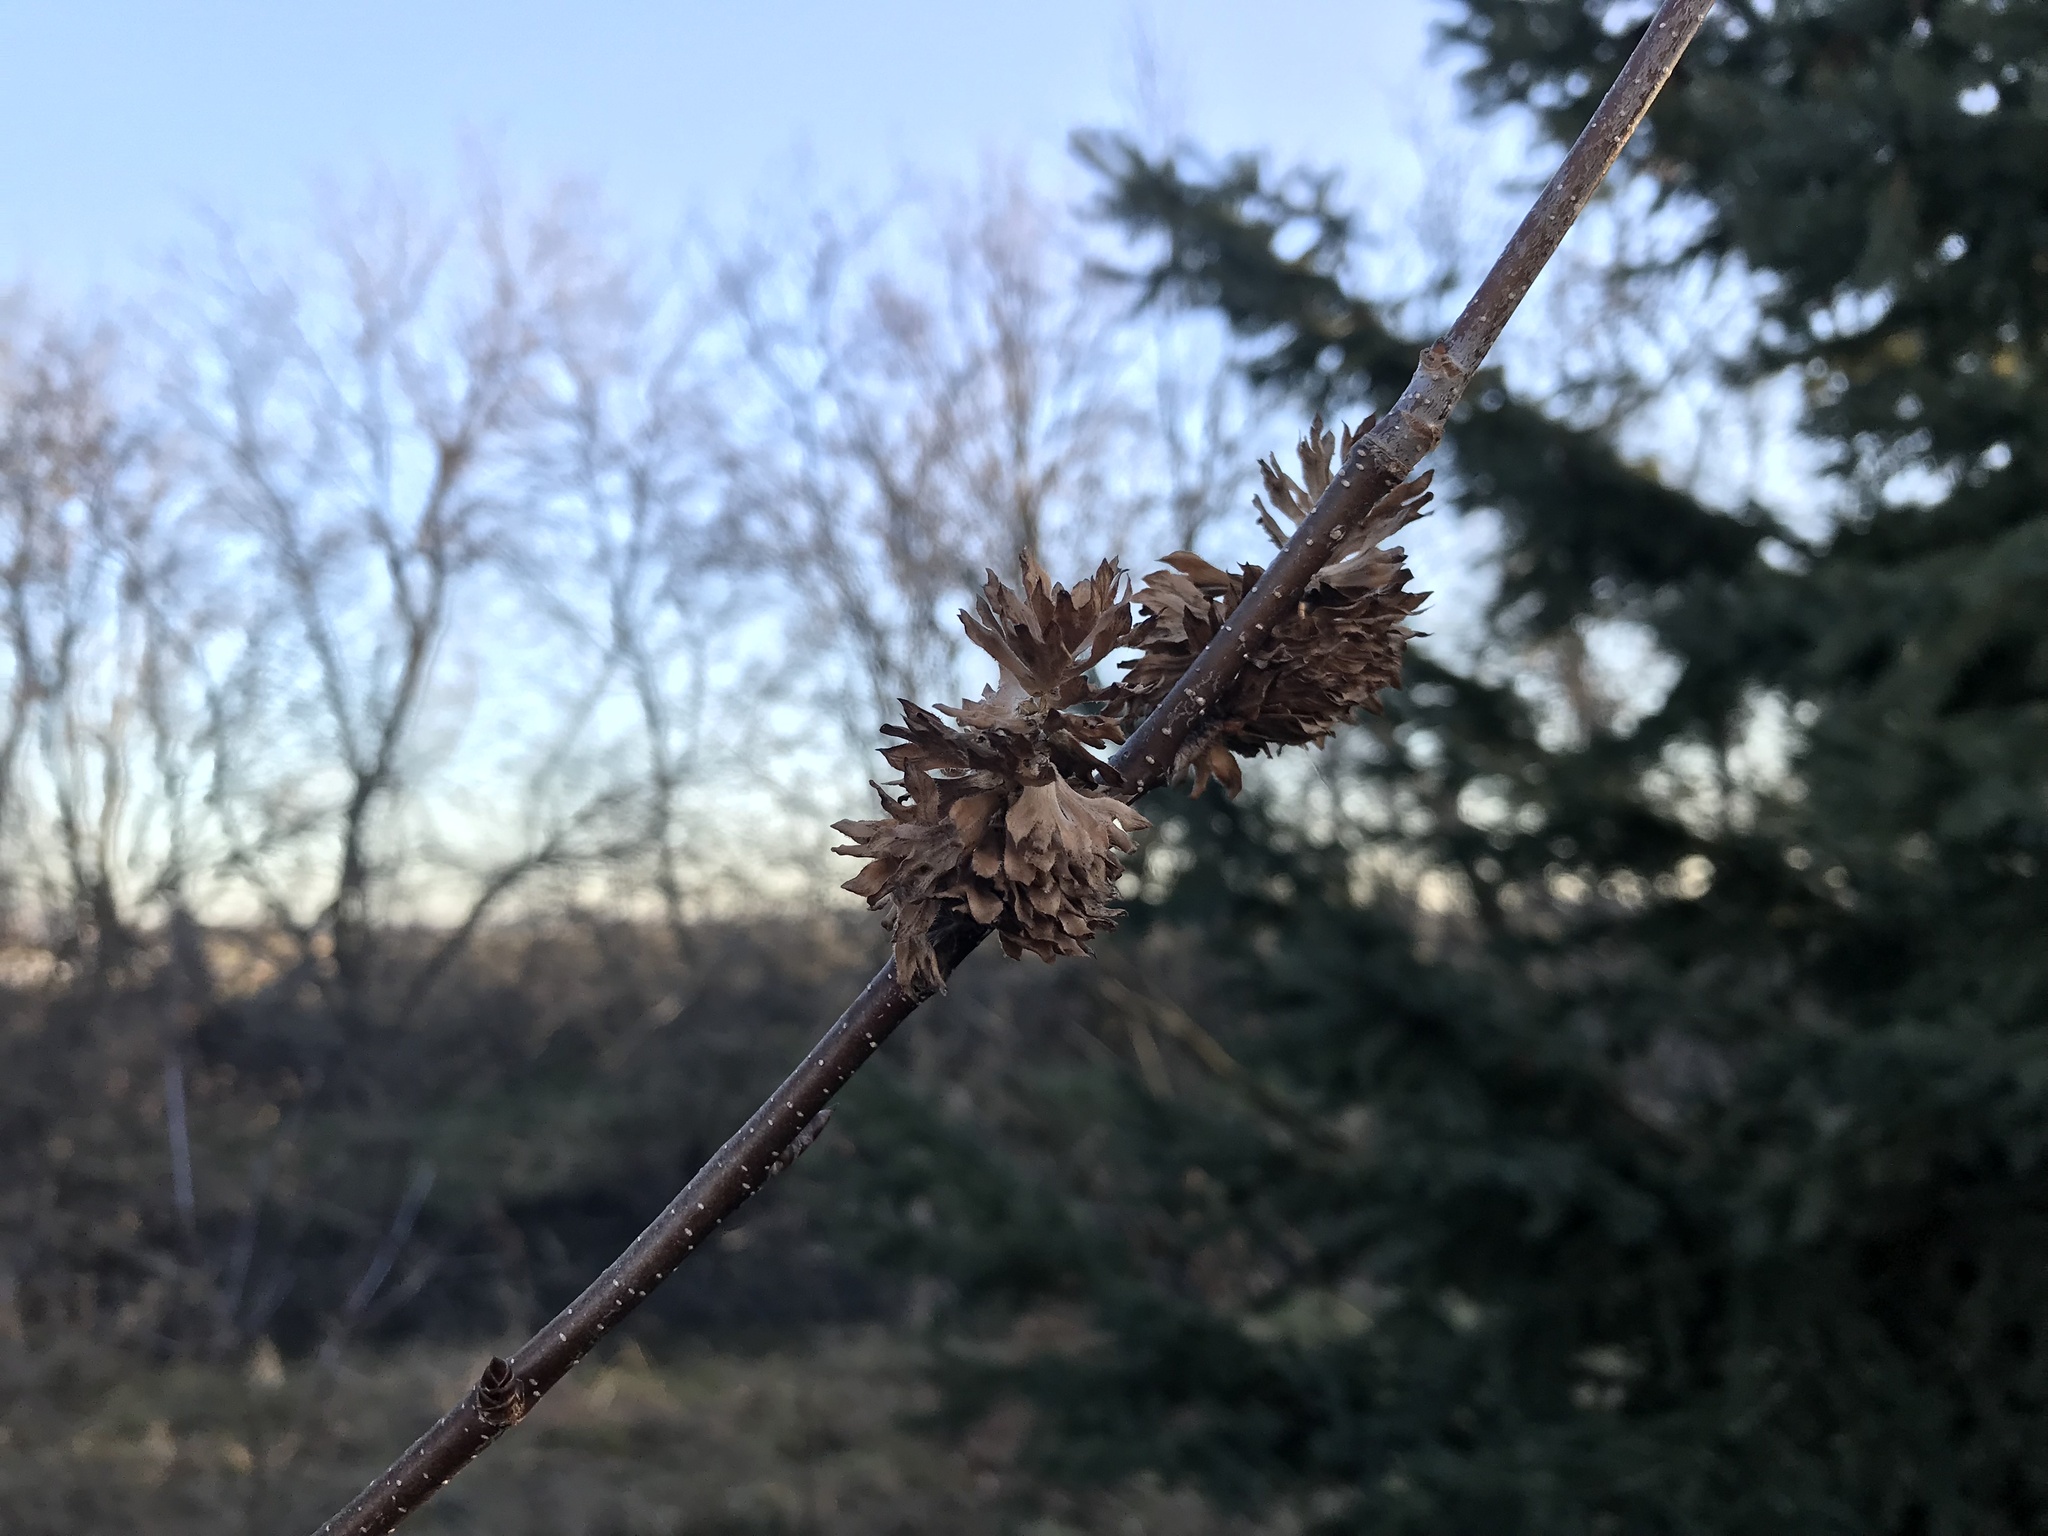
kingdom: Plantae
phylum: Tracheophyta
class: Magnoliopsida
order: Fagales
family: Betulaceae
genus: Betula
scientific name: Betula alleghaniensis
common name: Yellow birch
